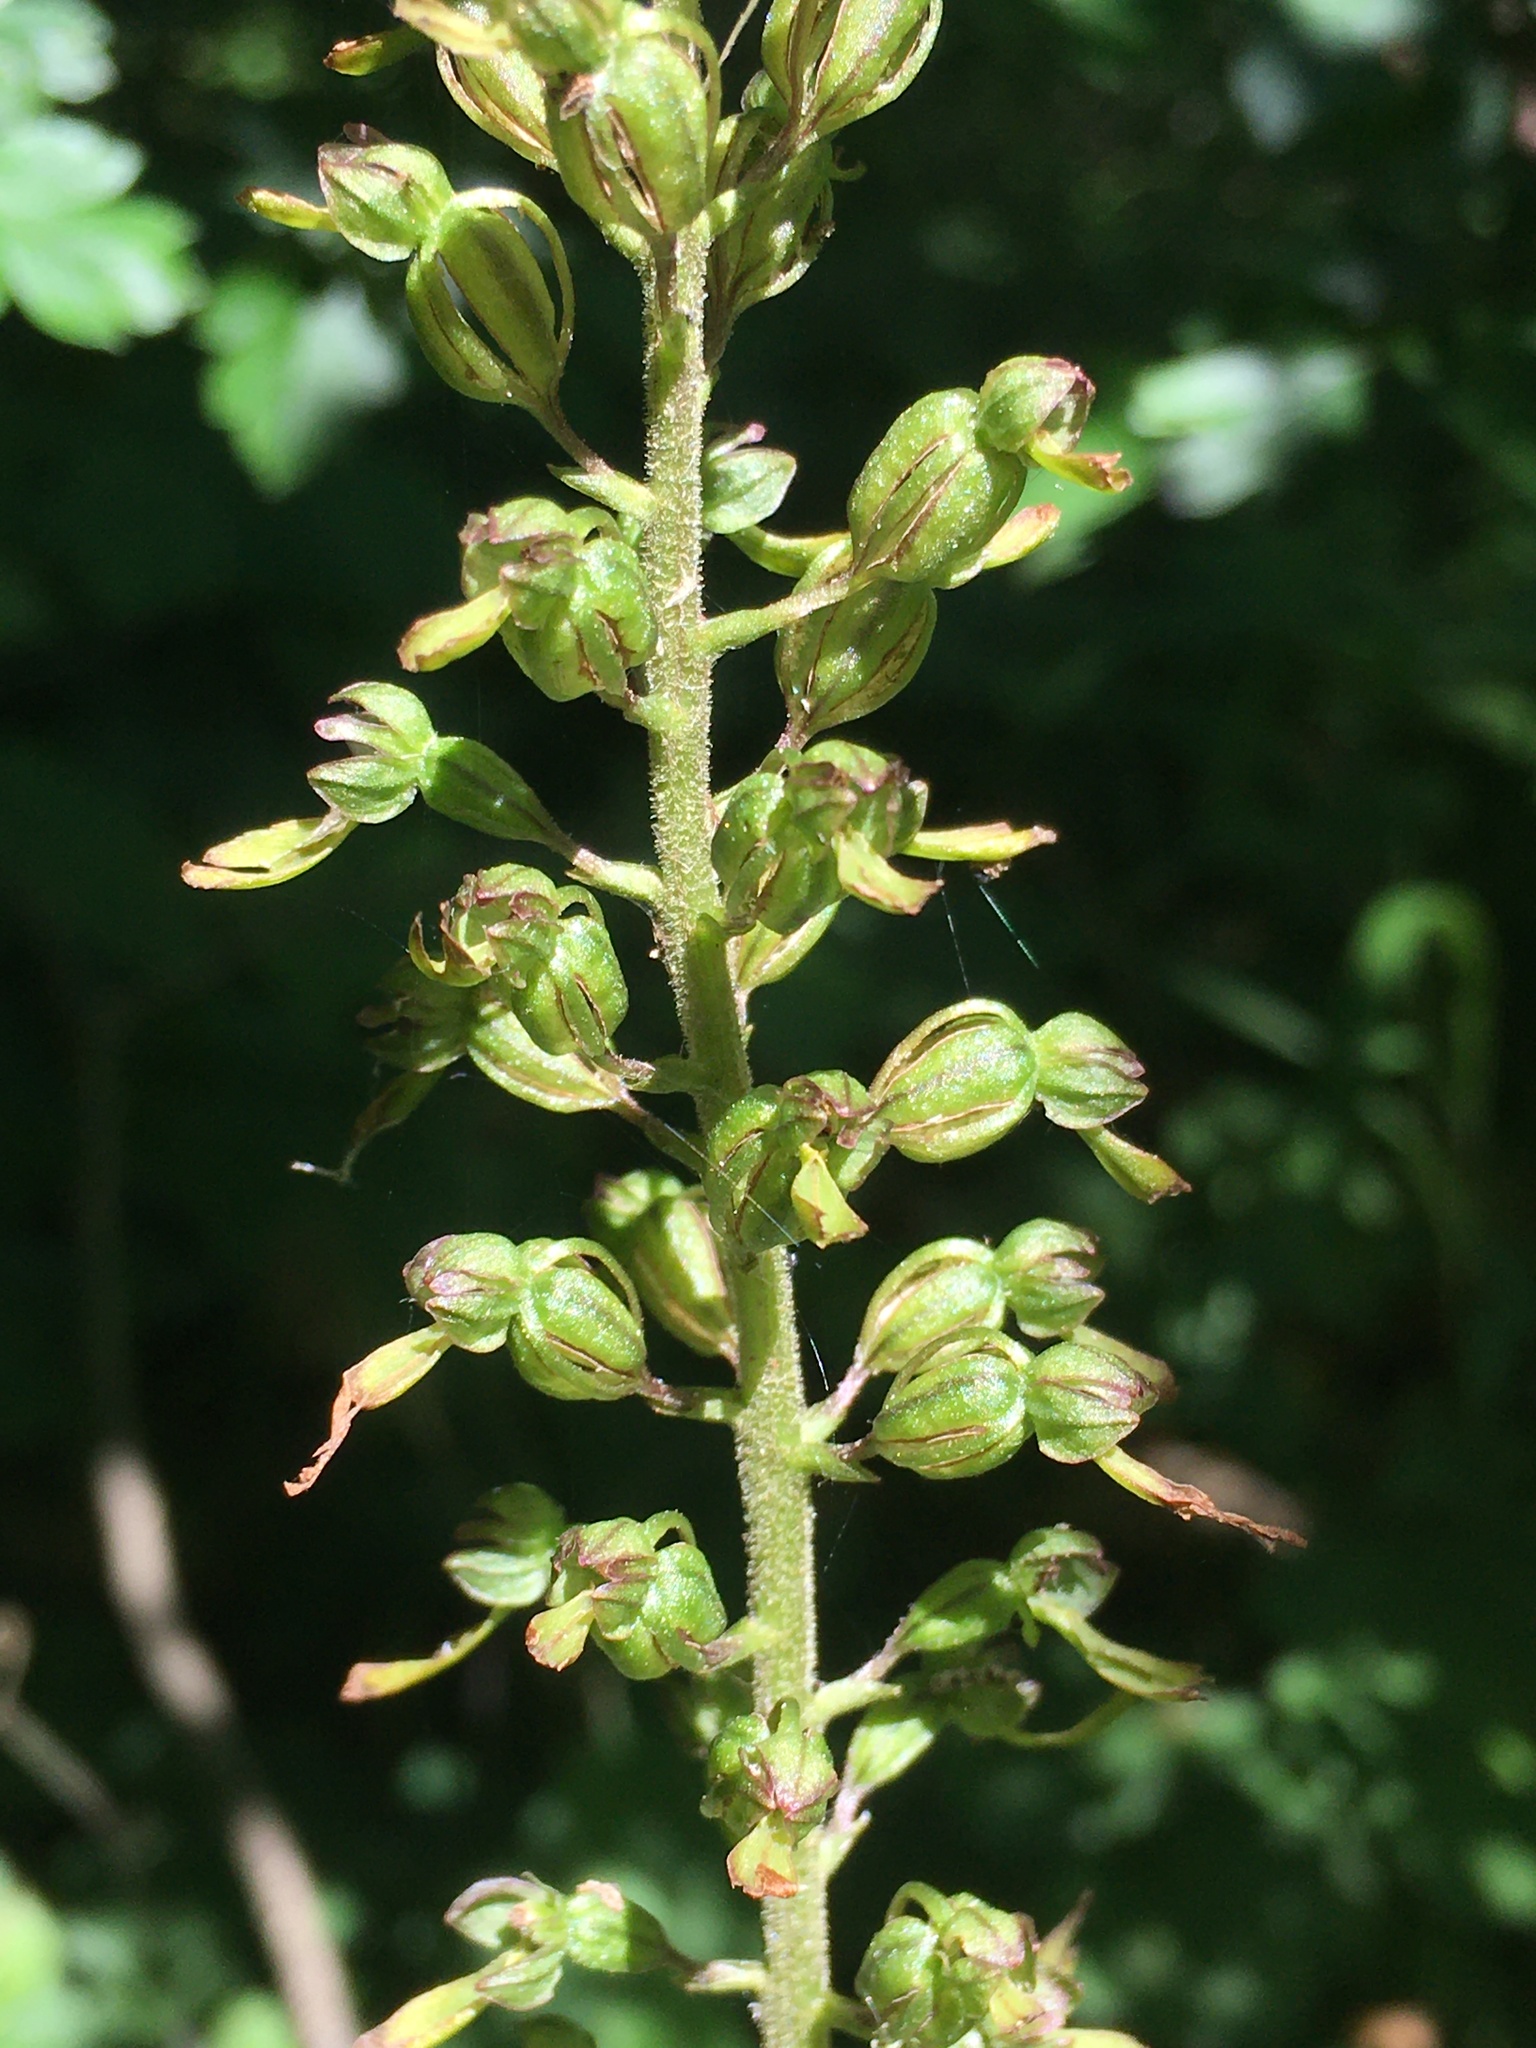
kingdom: Plantae
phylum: Tracheophyta
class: Liliopsida
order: Asparagales
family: Orchidaceae
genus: Neottia
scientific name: Neottia ovata
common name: Common twayblade
